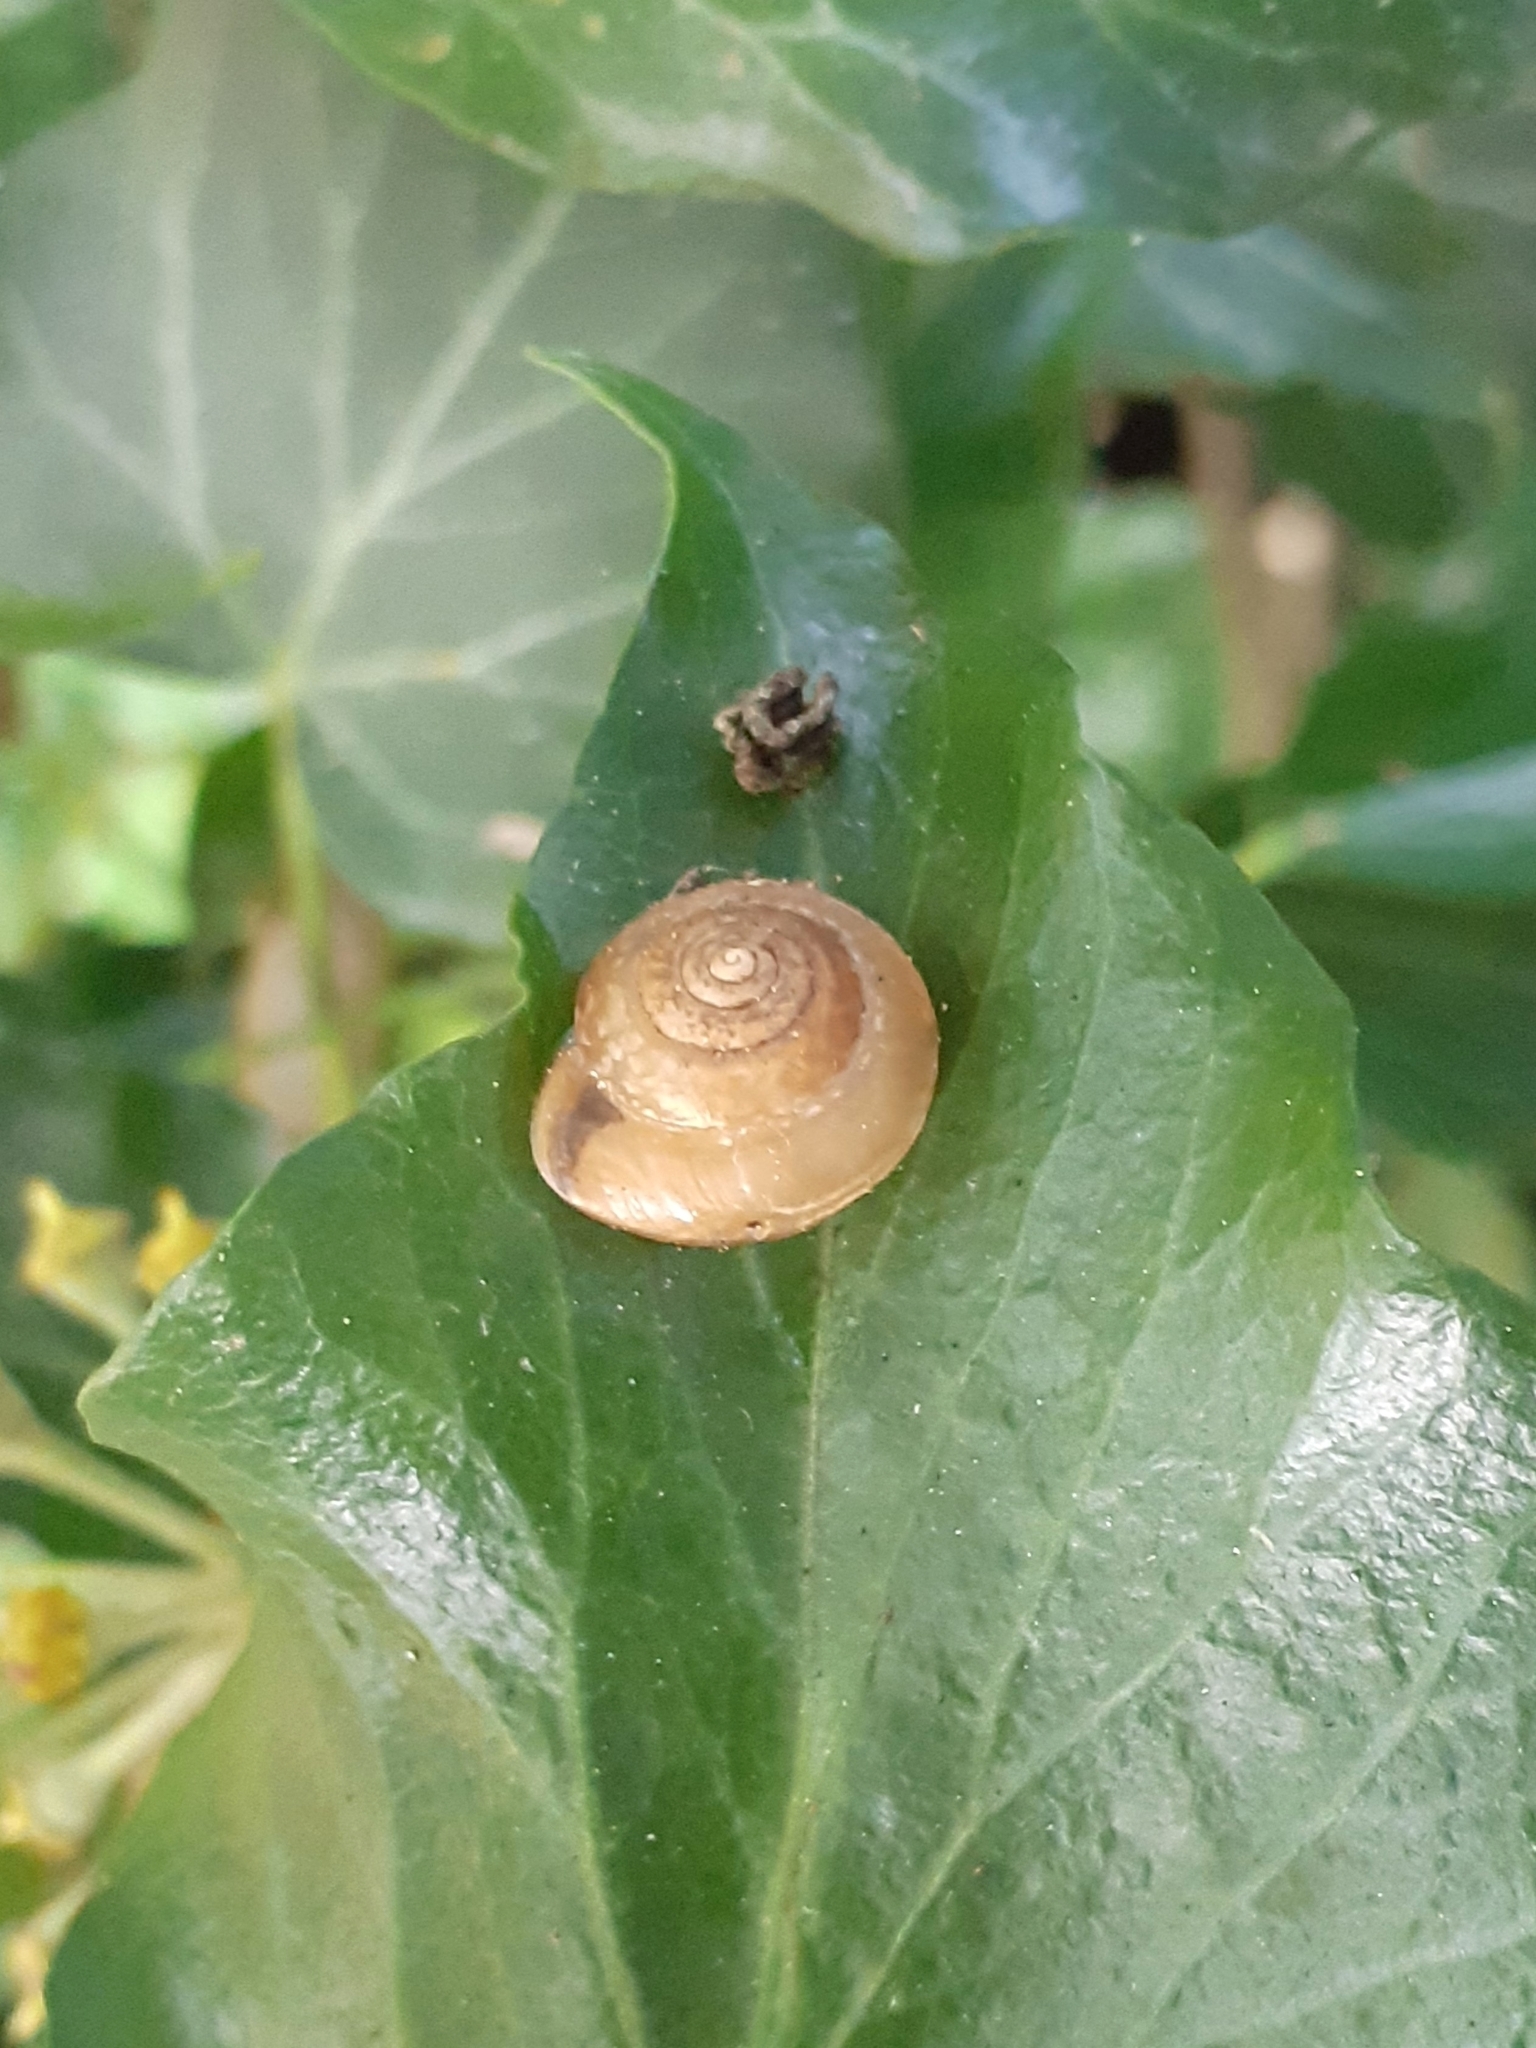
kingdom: Animalia
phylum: Mollusca
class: Gastropoda
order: Stylommatophora
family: Hygromiidae
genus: Hygromia
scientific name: Hygromia cinctella
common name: Girdled snail
